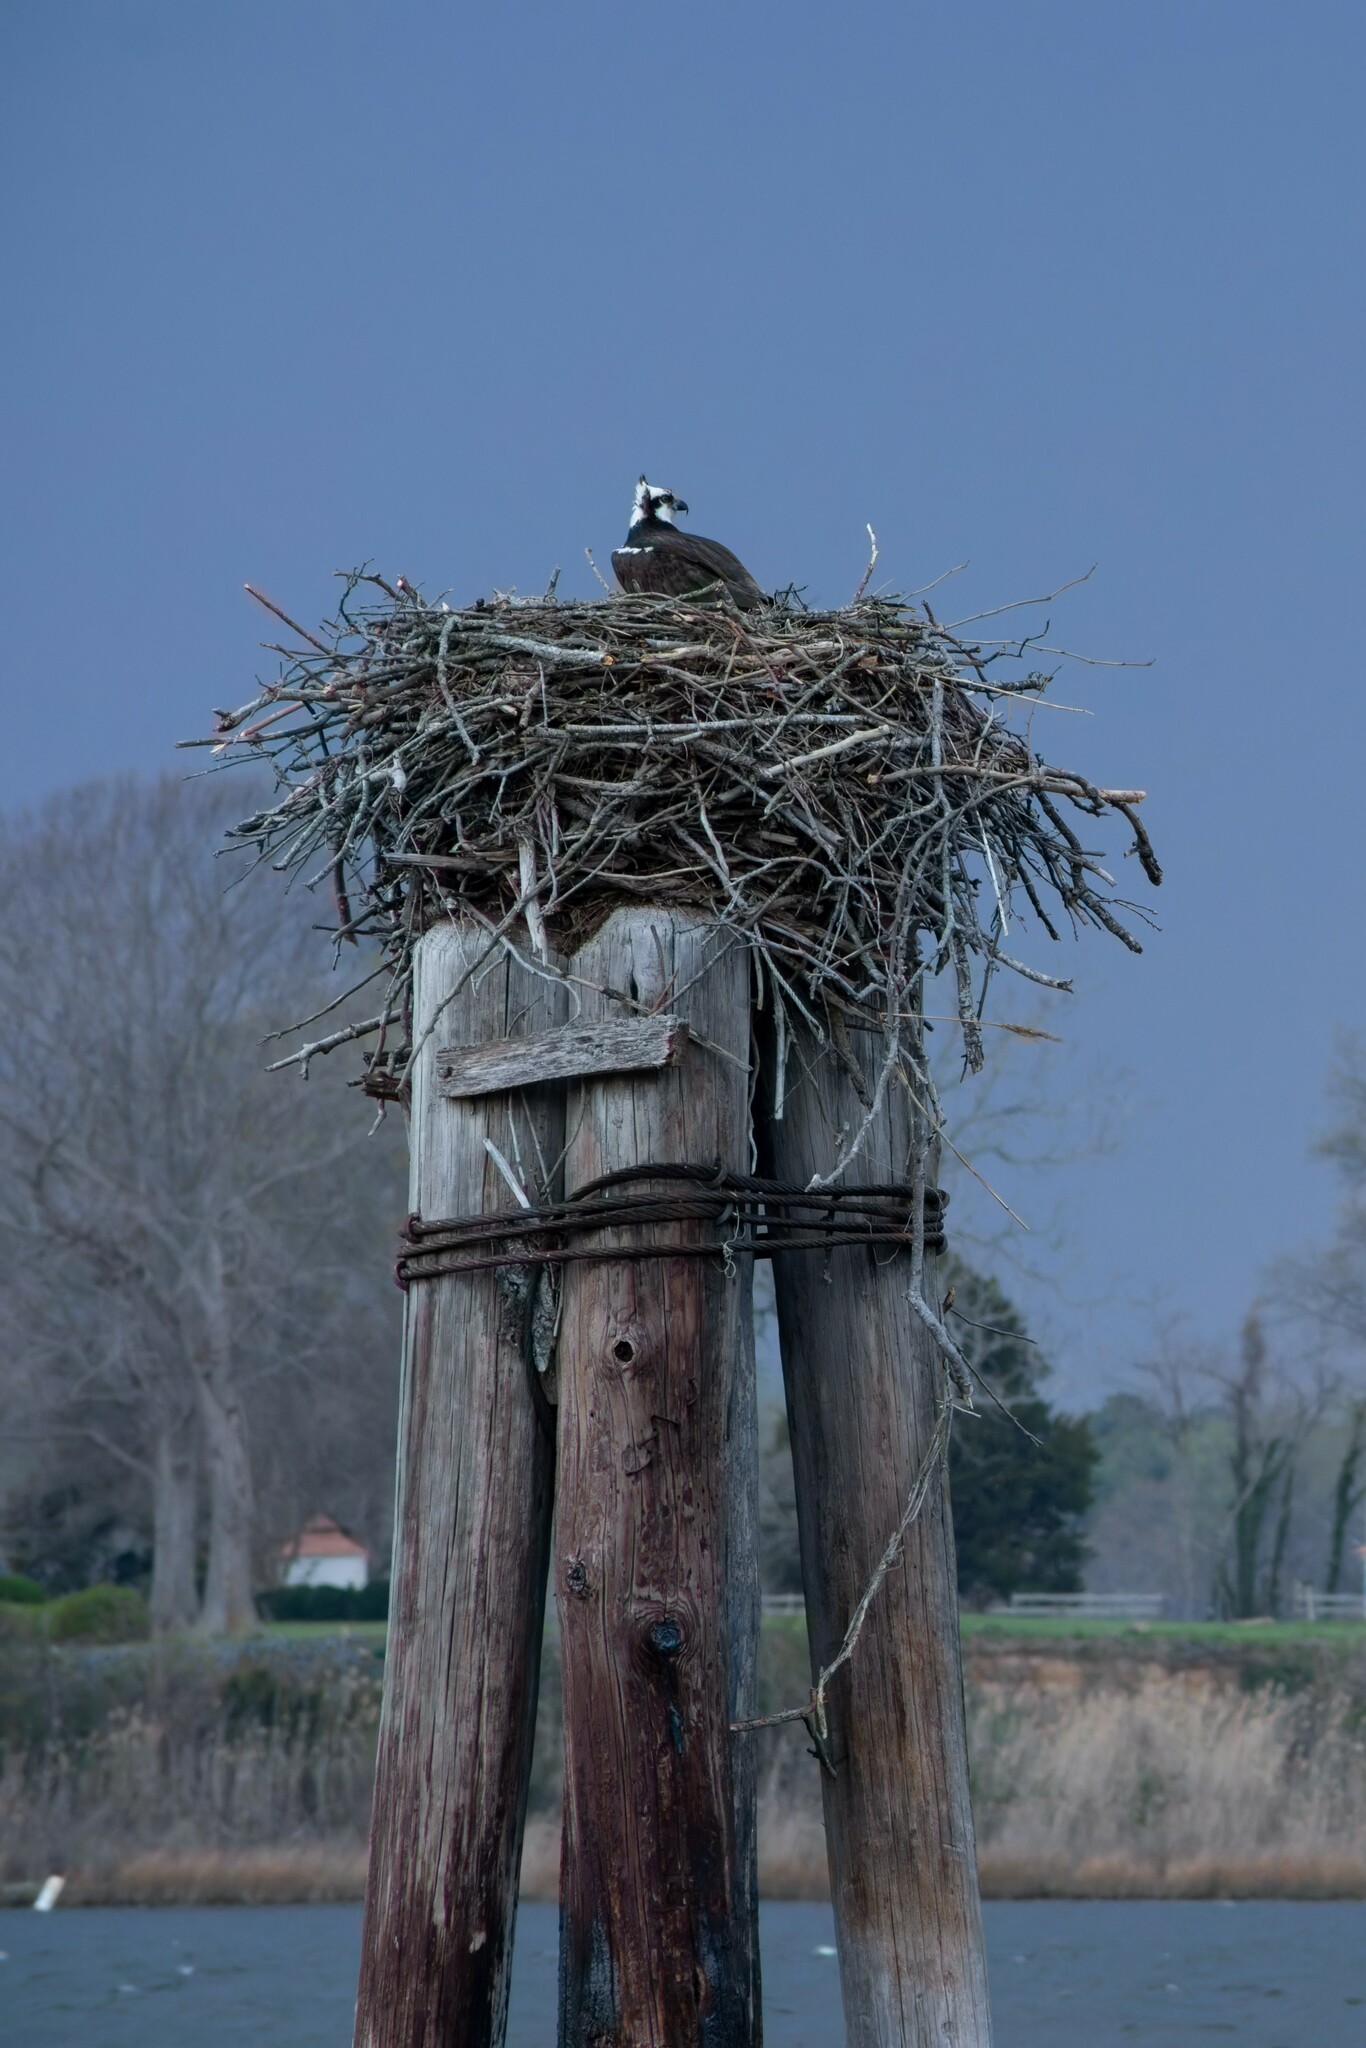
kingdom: Animalia
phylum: Chordata
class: Aves
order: Accipitriformes
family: Pandionidae
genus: Pandion
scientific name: Pandion haliaetus
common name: Osprey
